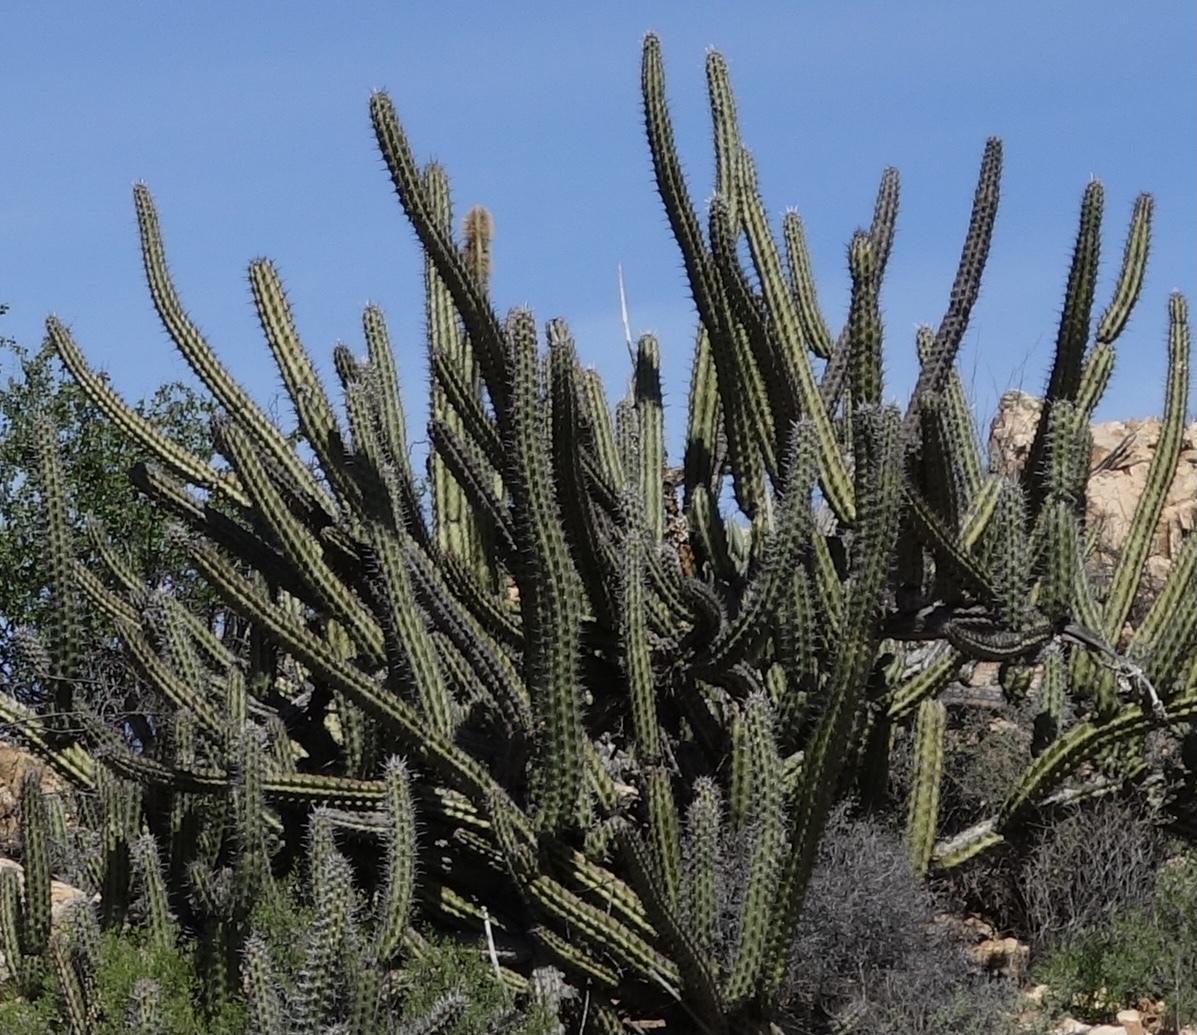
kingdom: Plantae
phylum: Tracheophyta
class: Magnoliopsida
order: Caryophyllales
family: Cactaceae
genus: Stenocereus
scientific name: Stenocereus gummosus
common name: Dagger cactus
